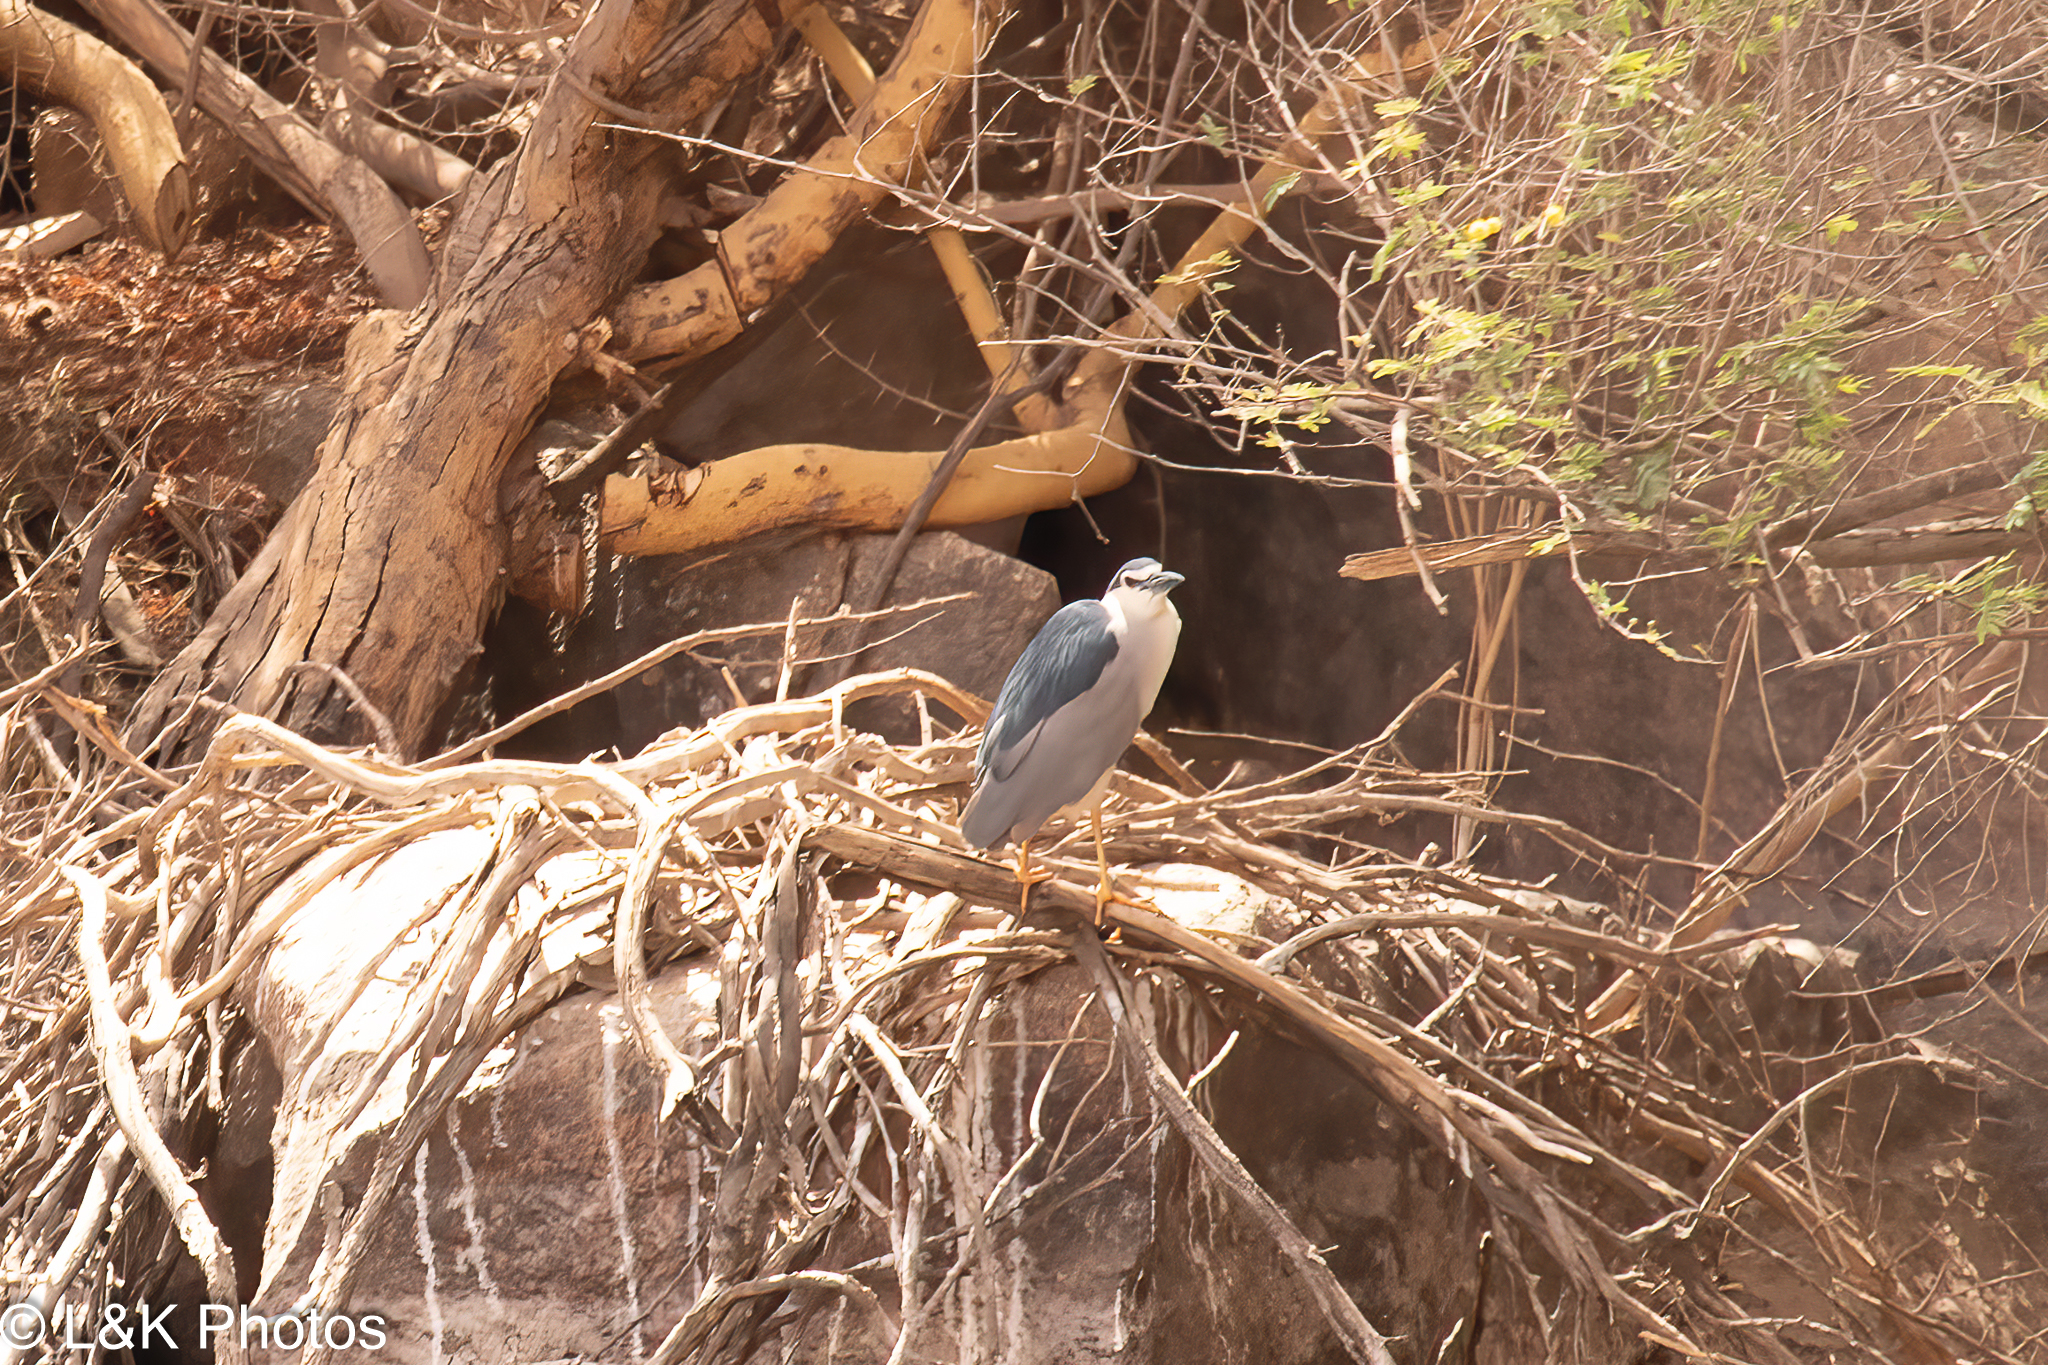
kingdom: Animalia
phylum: Chordata
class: Aves
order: Pelecaniformes
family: Ardeidae
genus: Nycticorax
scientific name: Nycticorax nycticorax
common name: Black-crowned night heron
